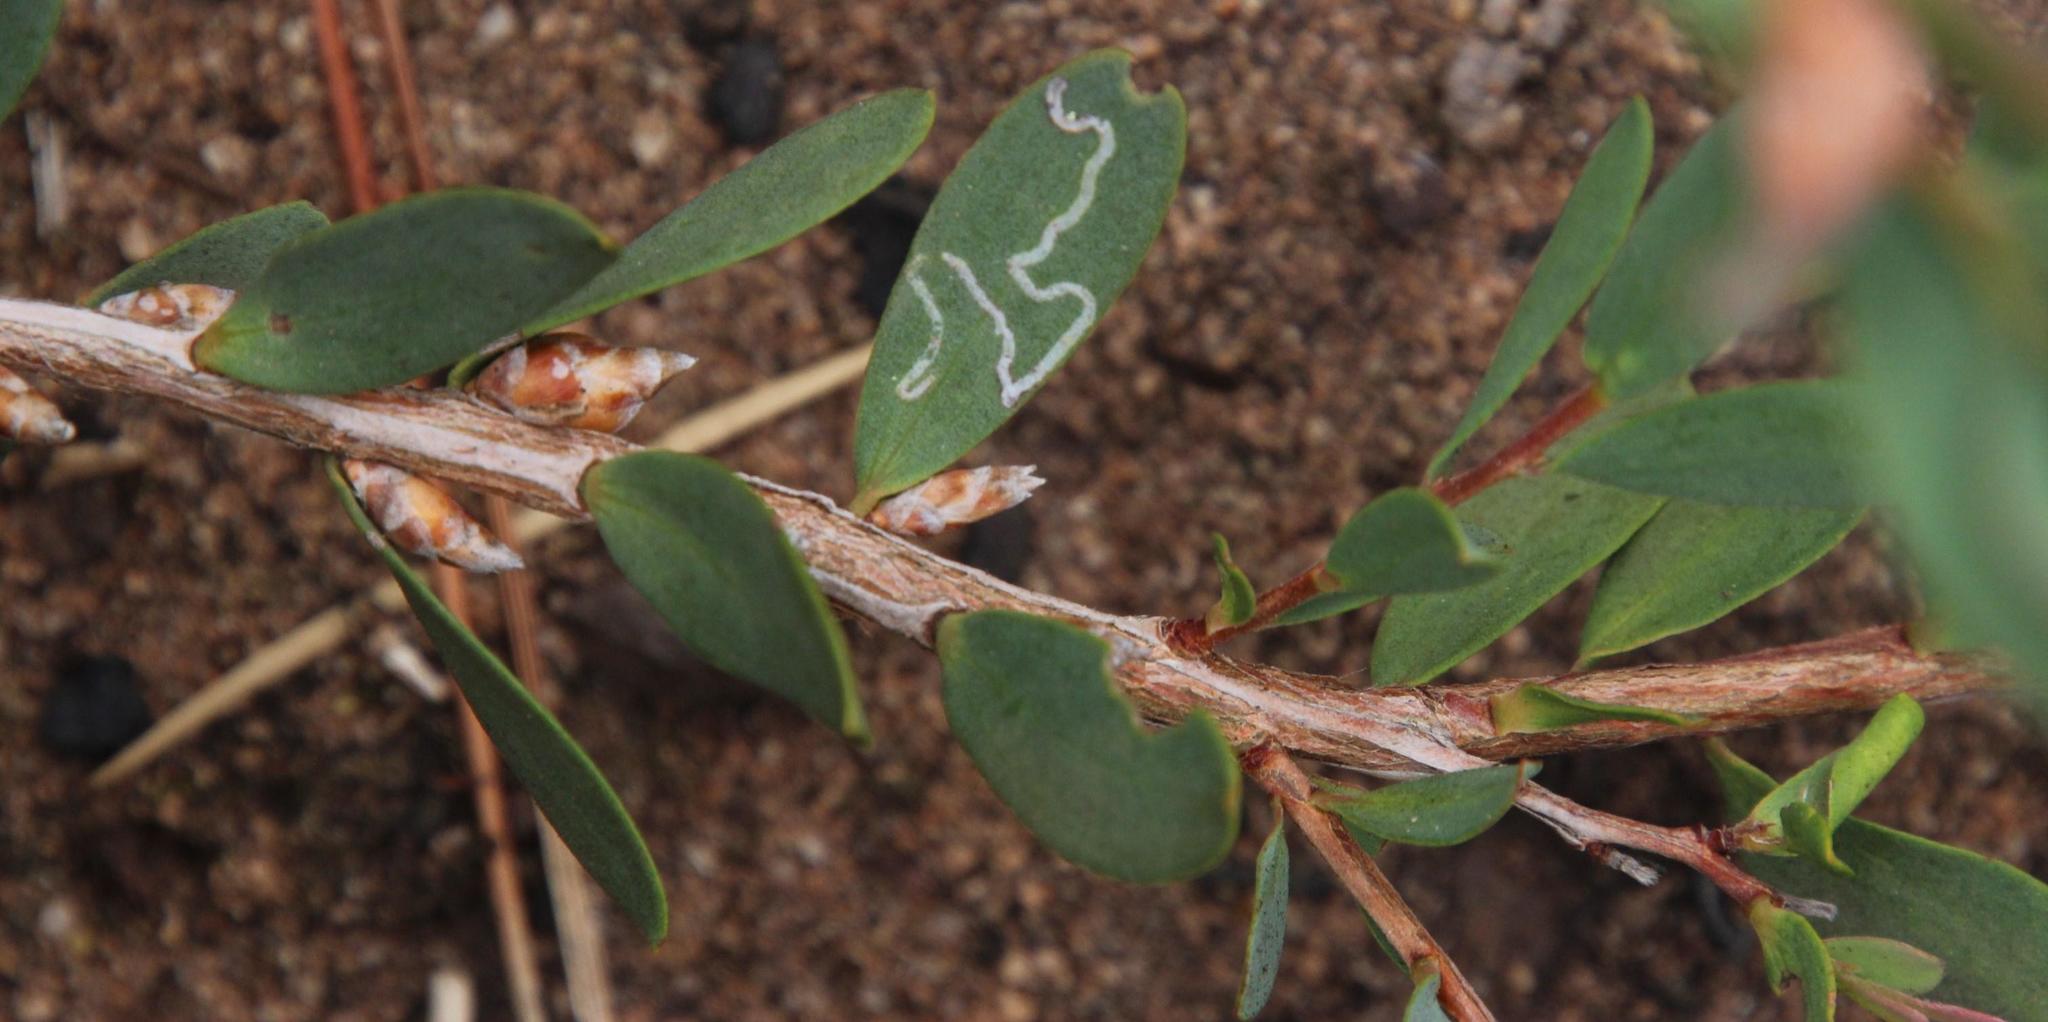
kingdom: Plantae
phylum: Tracheophyta
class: Magnoliopsida
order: Myrtales
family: Myrtaceae
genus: Leptospermum
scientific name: Leptospermum laevigatum
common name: Australian teatree
